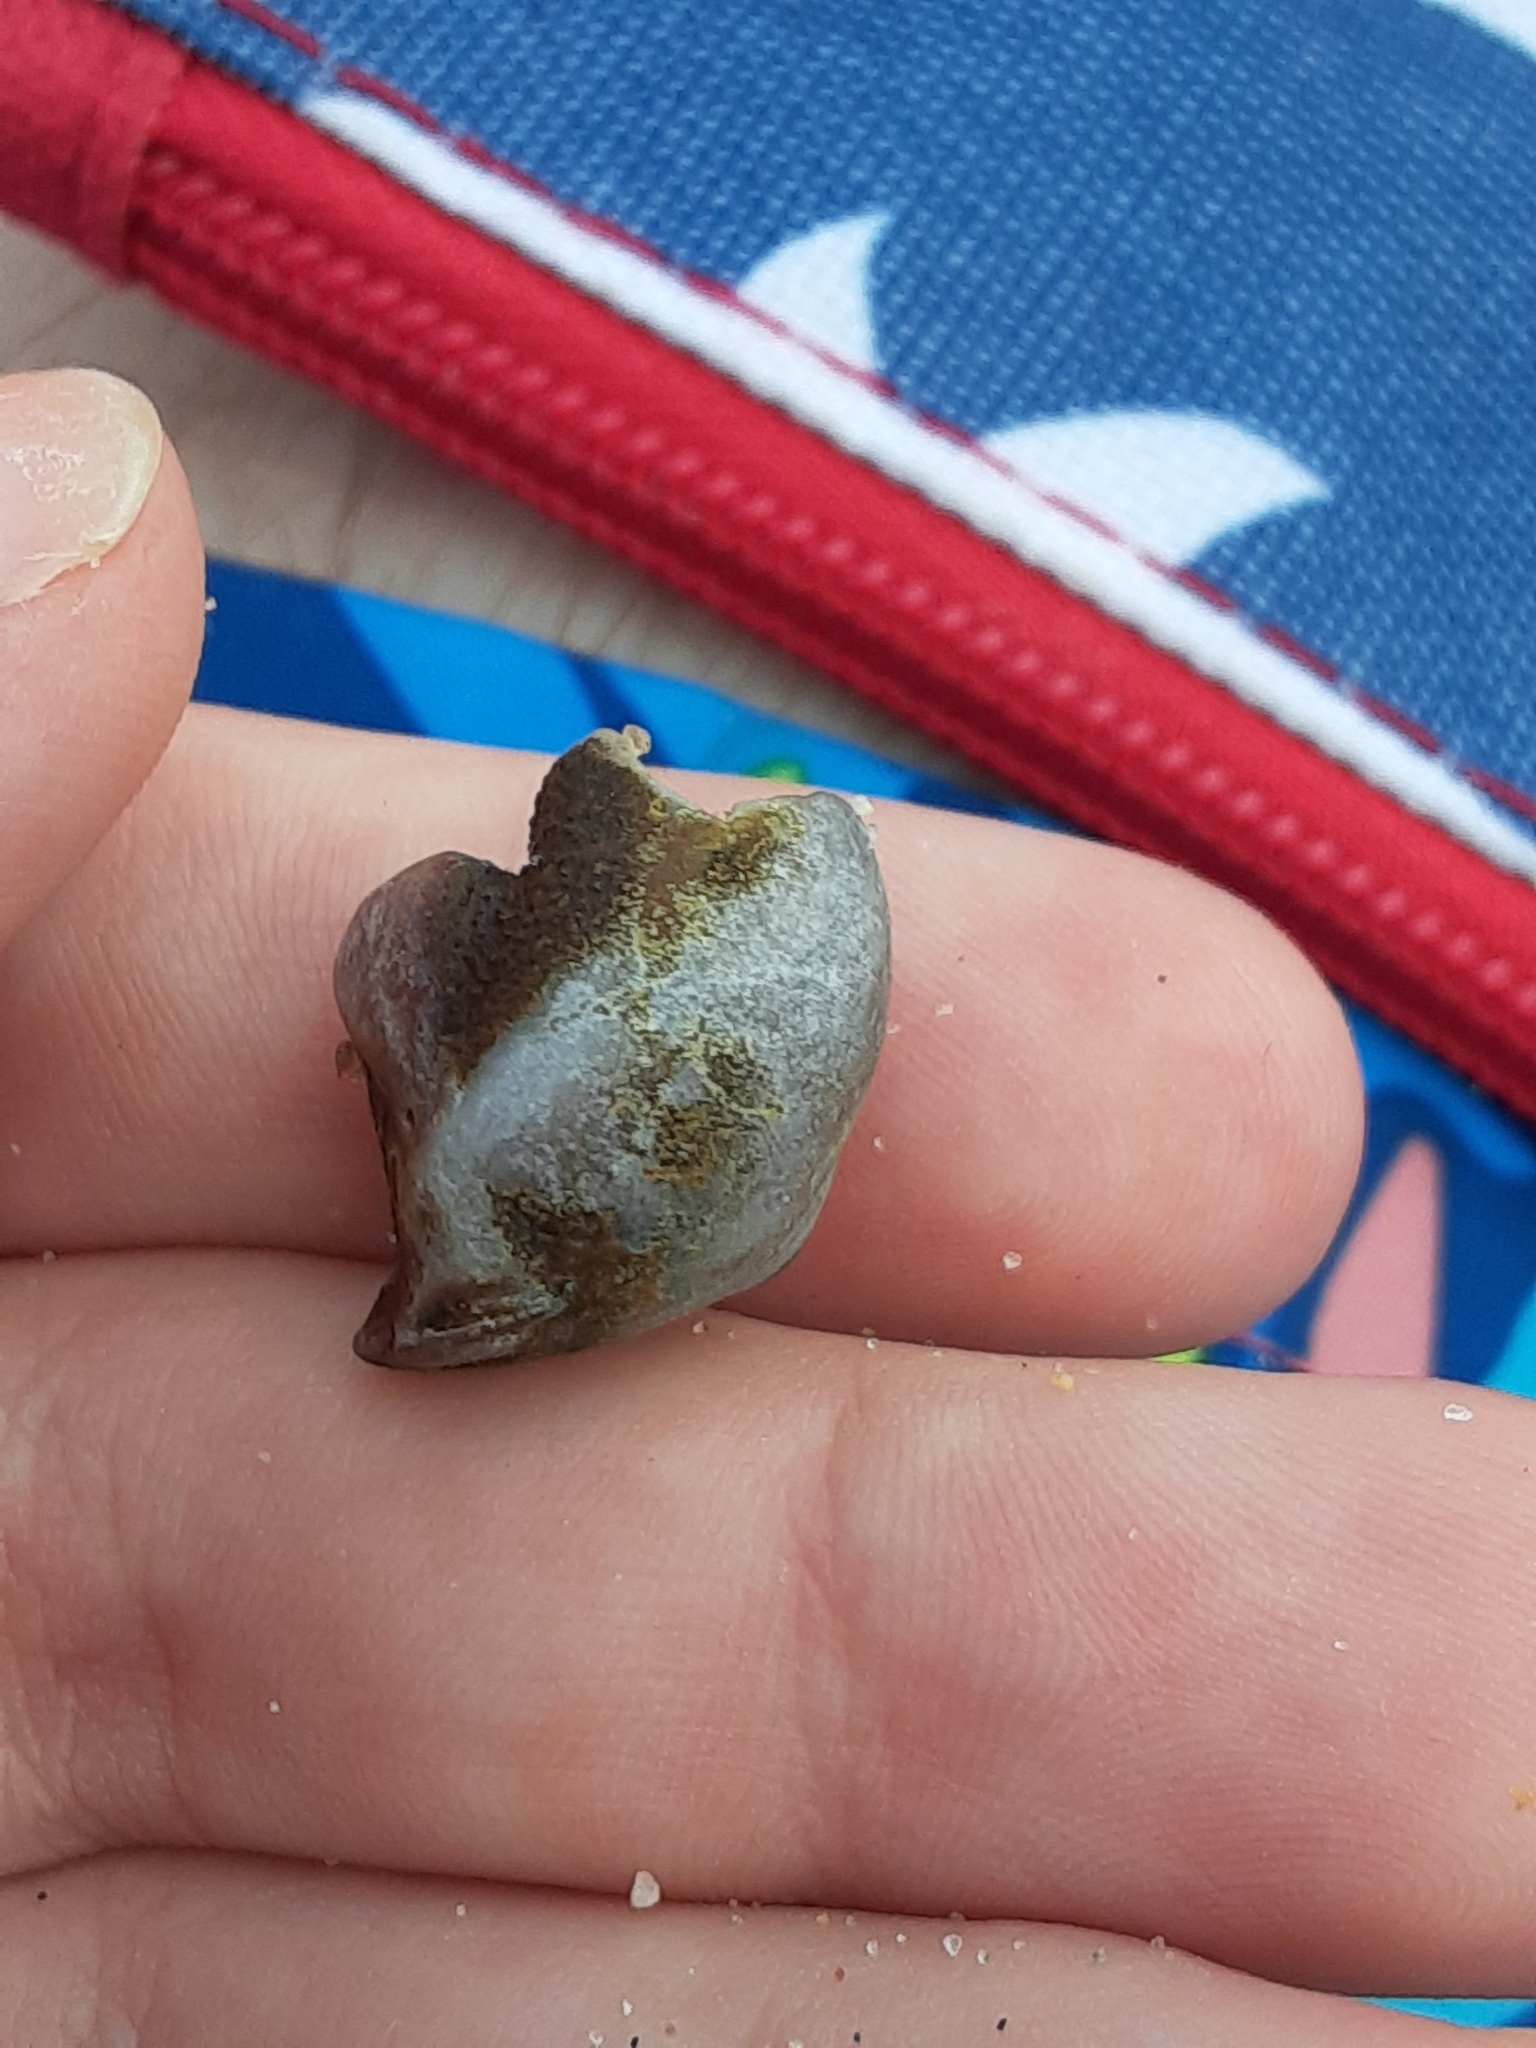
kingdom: Animalia
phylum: Mollusca
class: Gastropoda
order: Littorinimorpha
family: Naticidae
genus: Neverita
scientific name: Neverita duplicata
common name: Lobed moonsnail
